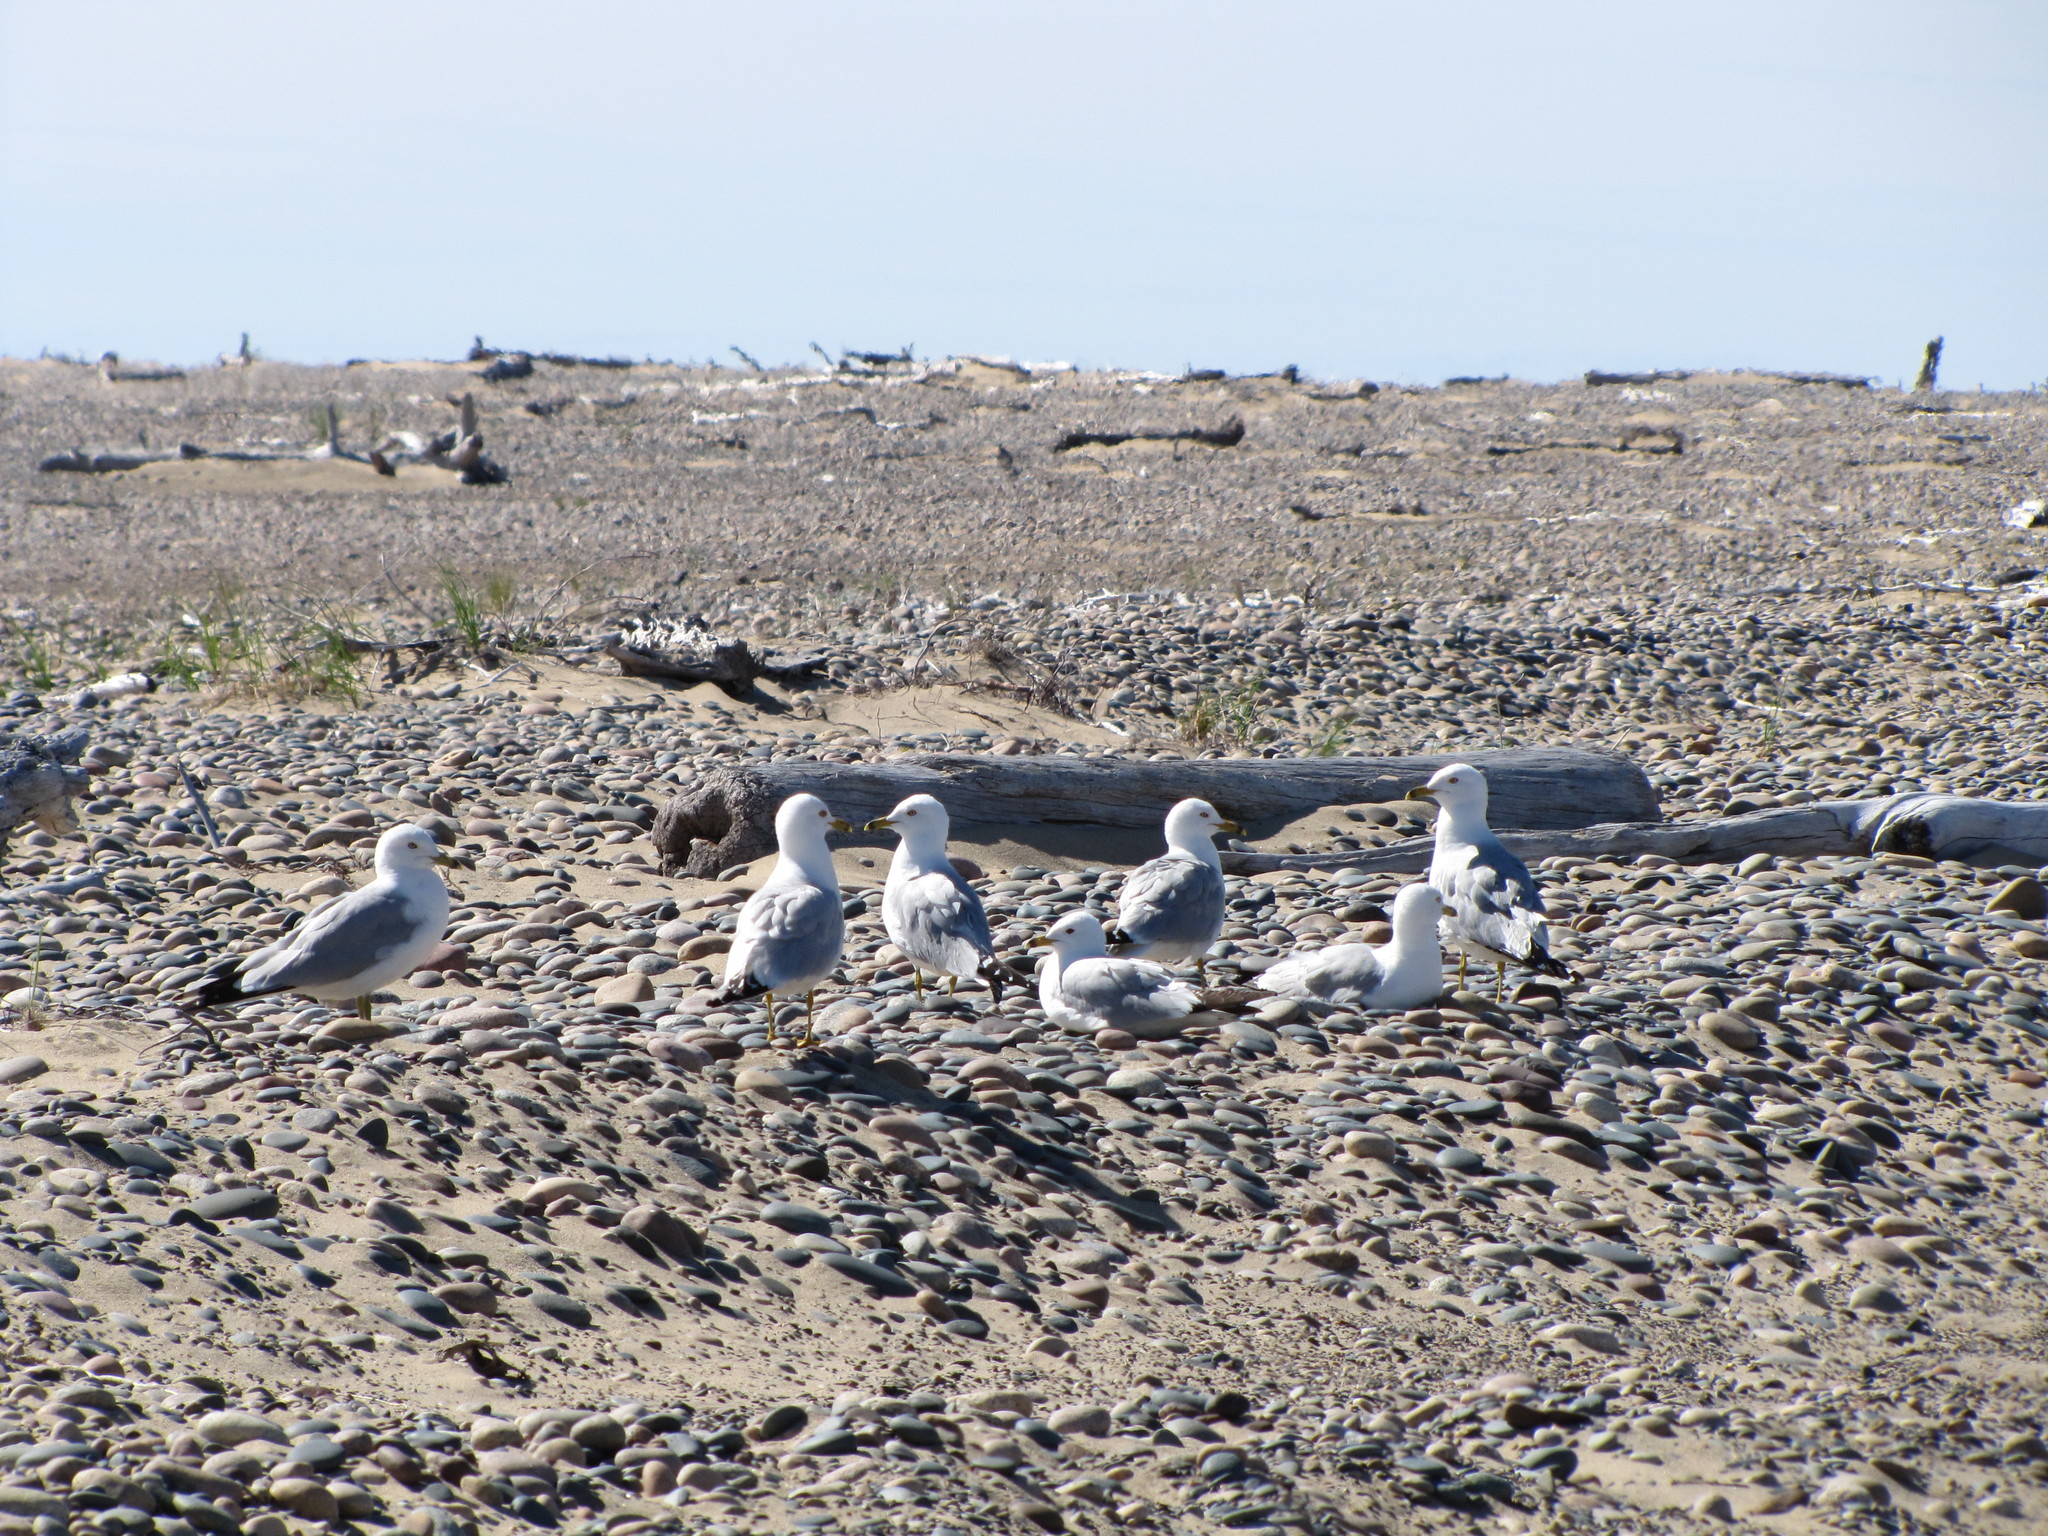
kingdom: Animalia
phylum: Chordata
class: Aves
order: Charadriiformes
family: Laridae
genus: Larus
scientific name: Larus delawarensis
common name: Ring-billed gull
